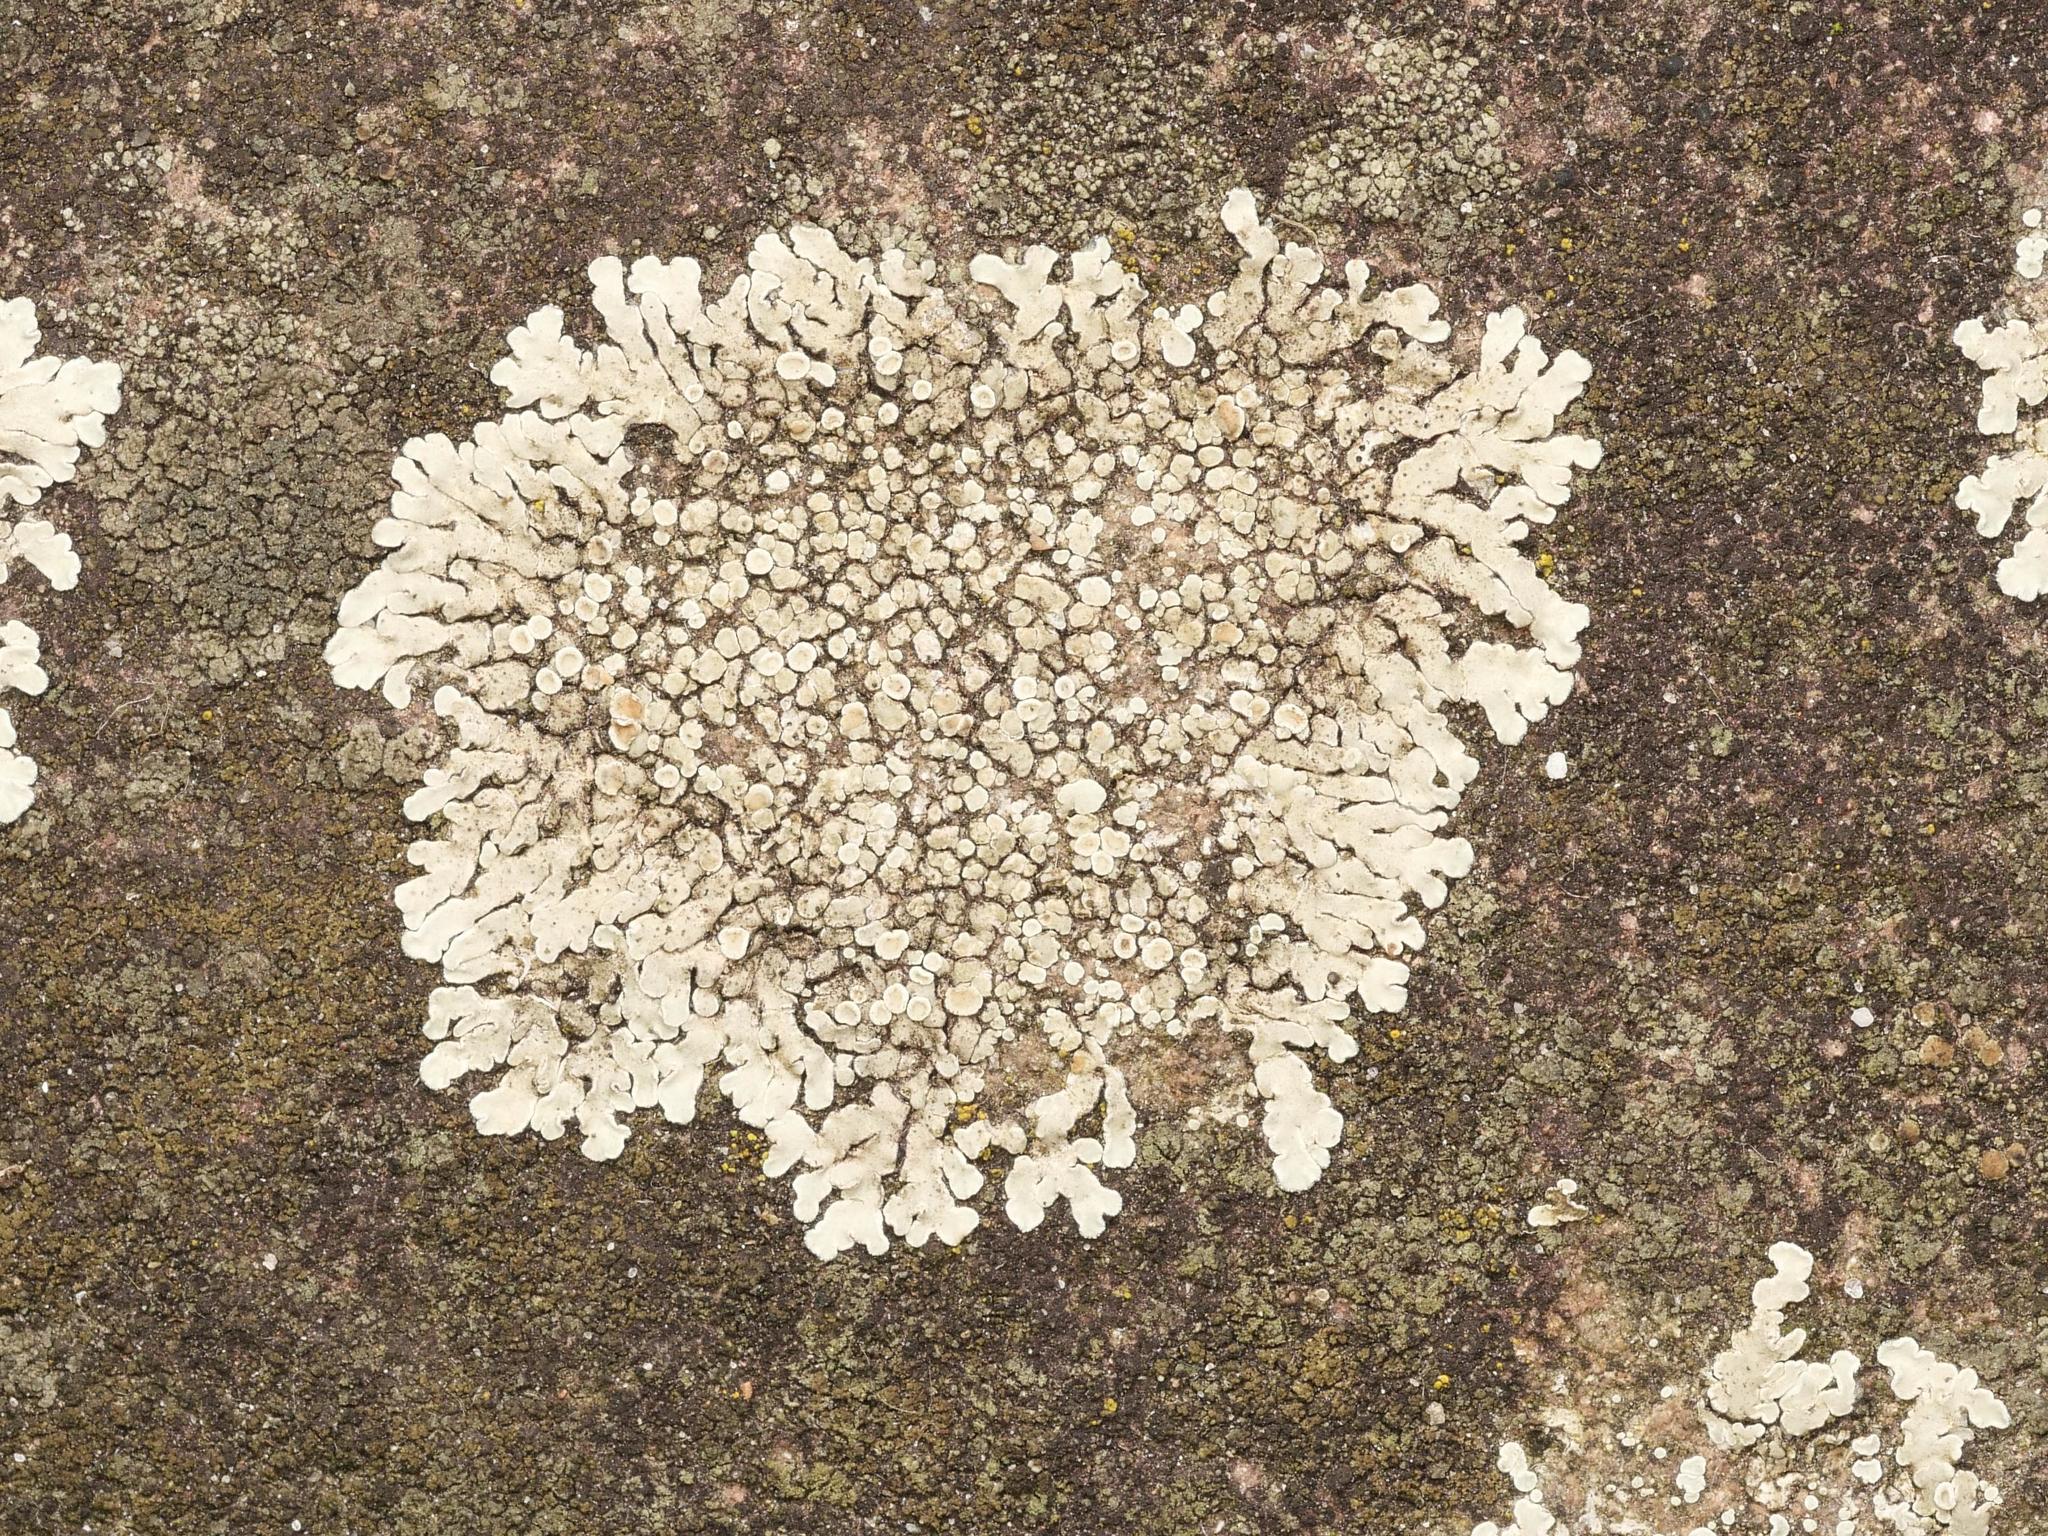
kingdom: Fungi
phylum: Ascomycota
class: Lecanoromycetes
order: Lecanorales
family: Lecanoraceae
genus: Protoparmeliopsis
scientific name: Protoparmeliopsis muralis
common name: Stonewall rim lichen
